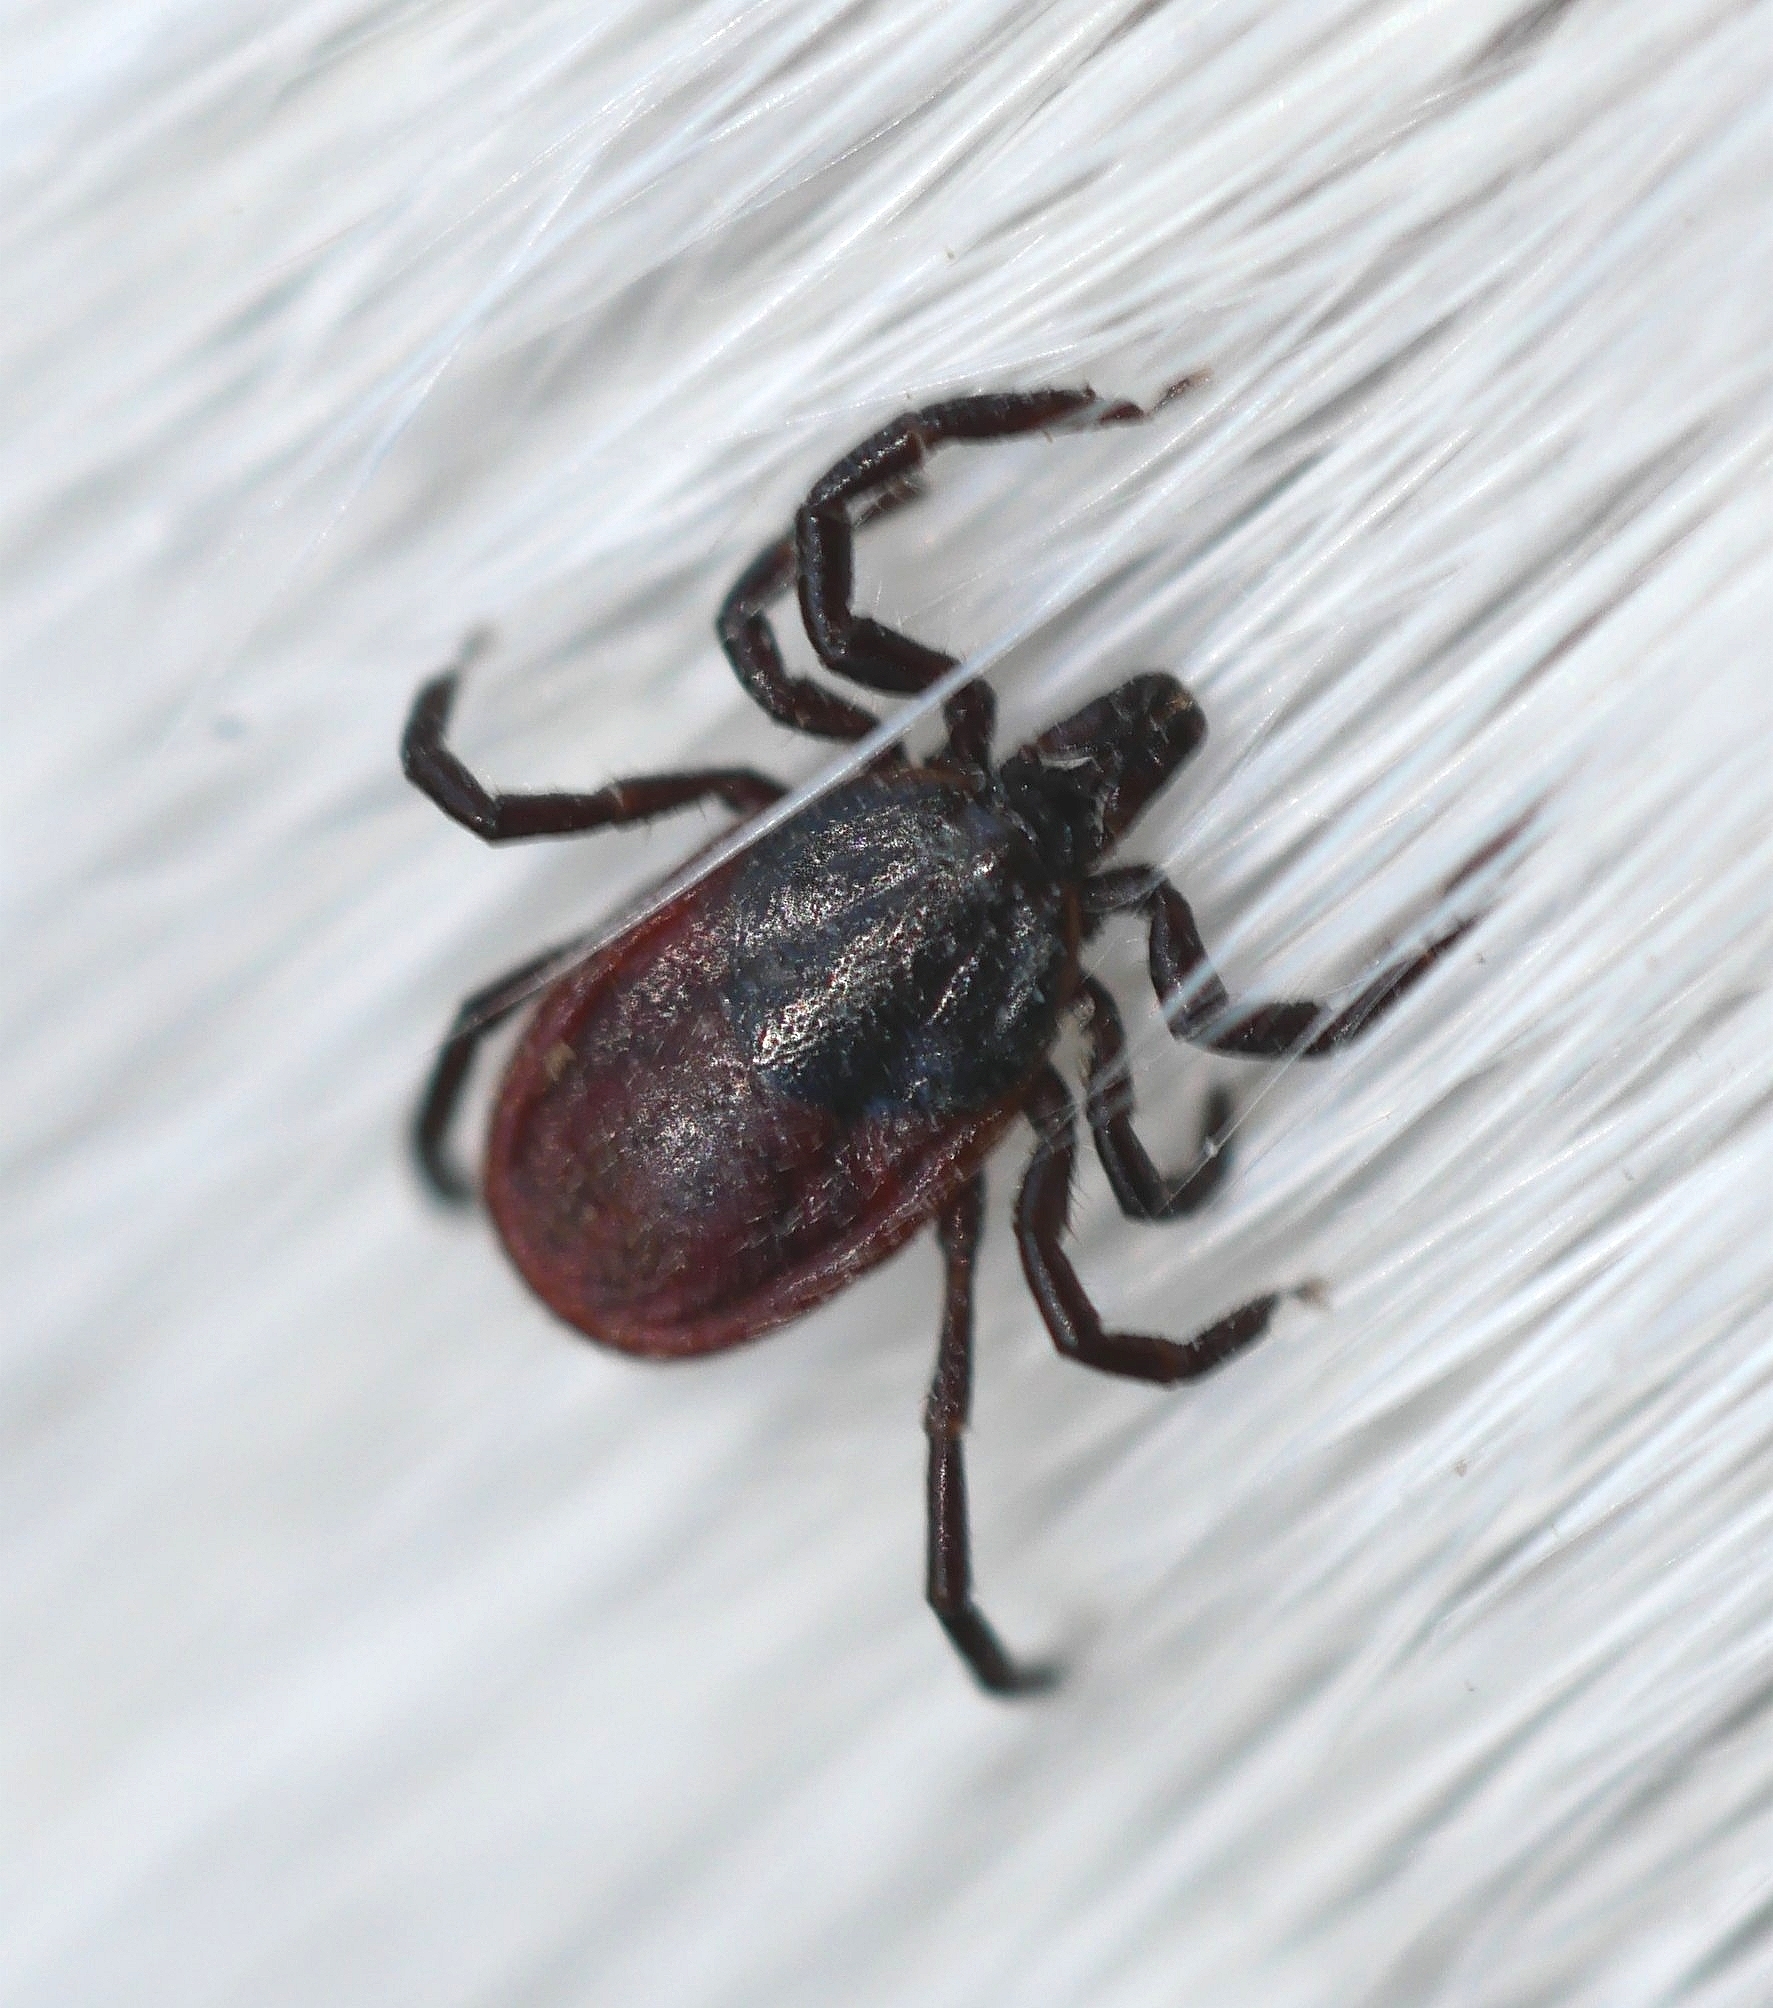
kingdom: Animalia
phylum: Arthropoda
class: Arachnida
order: Ixodida
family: Ixodidae
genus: Ixodes
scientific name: Ixodes pacificus
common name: California black-legged tick
